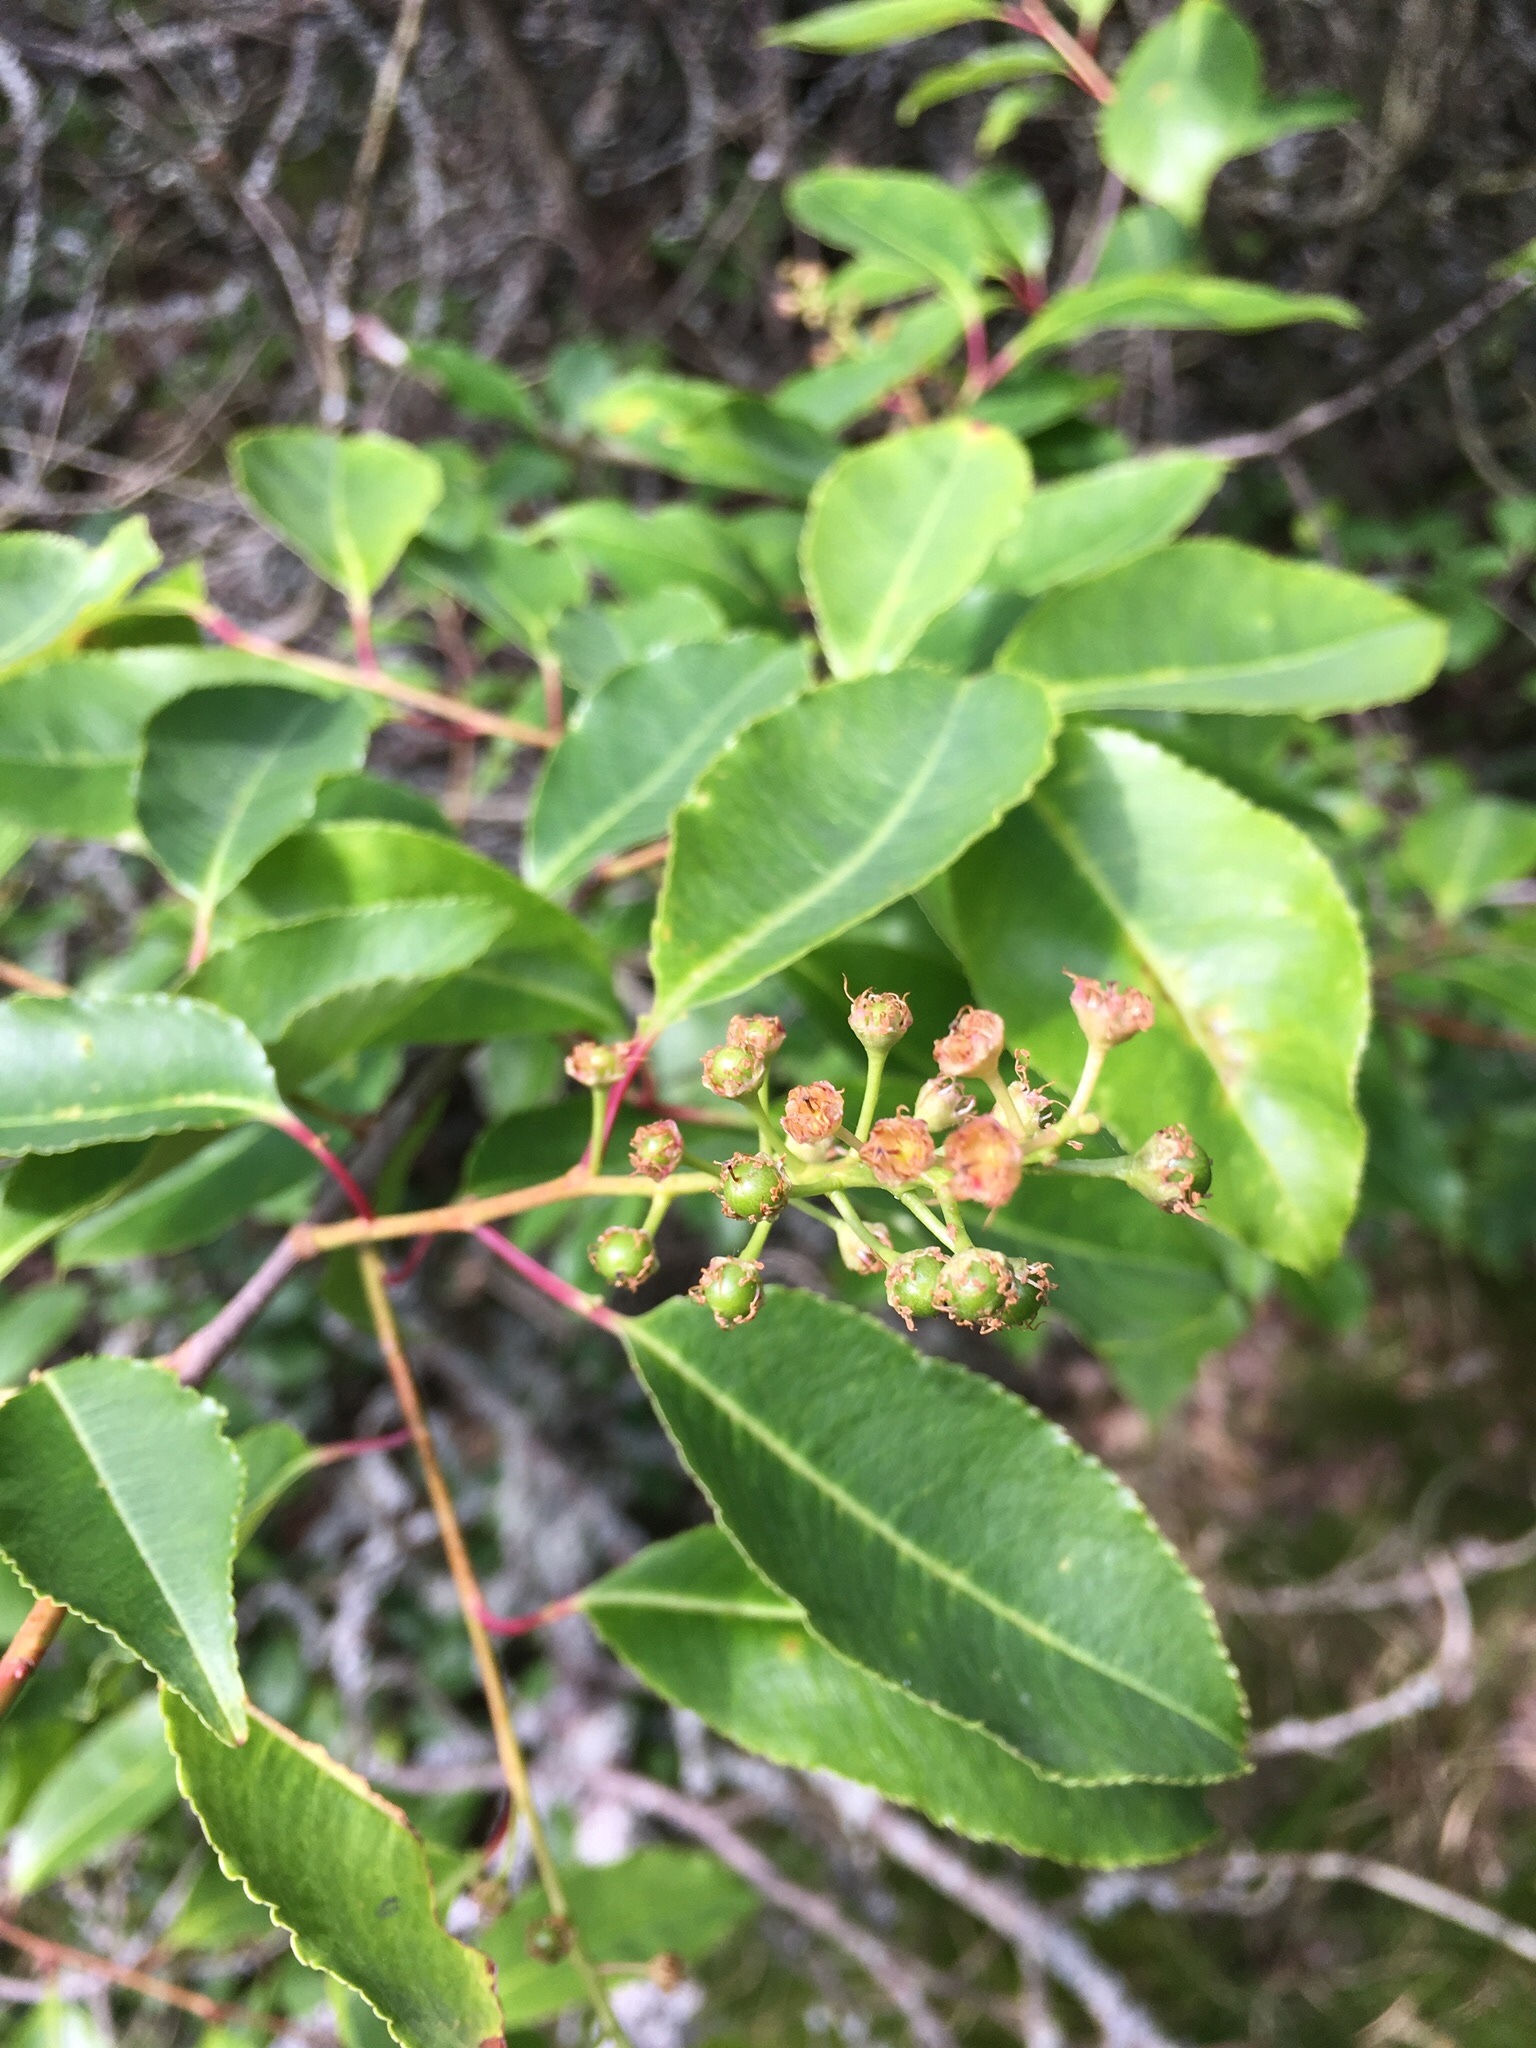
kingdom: Plantae
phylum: Tracheophyta
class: Magnoliopsida
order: Rosales
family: Rosaceae
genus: Prunus
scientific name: Prunus serotina
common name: Black cherry
